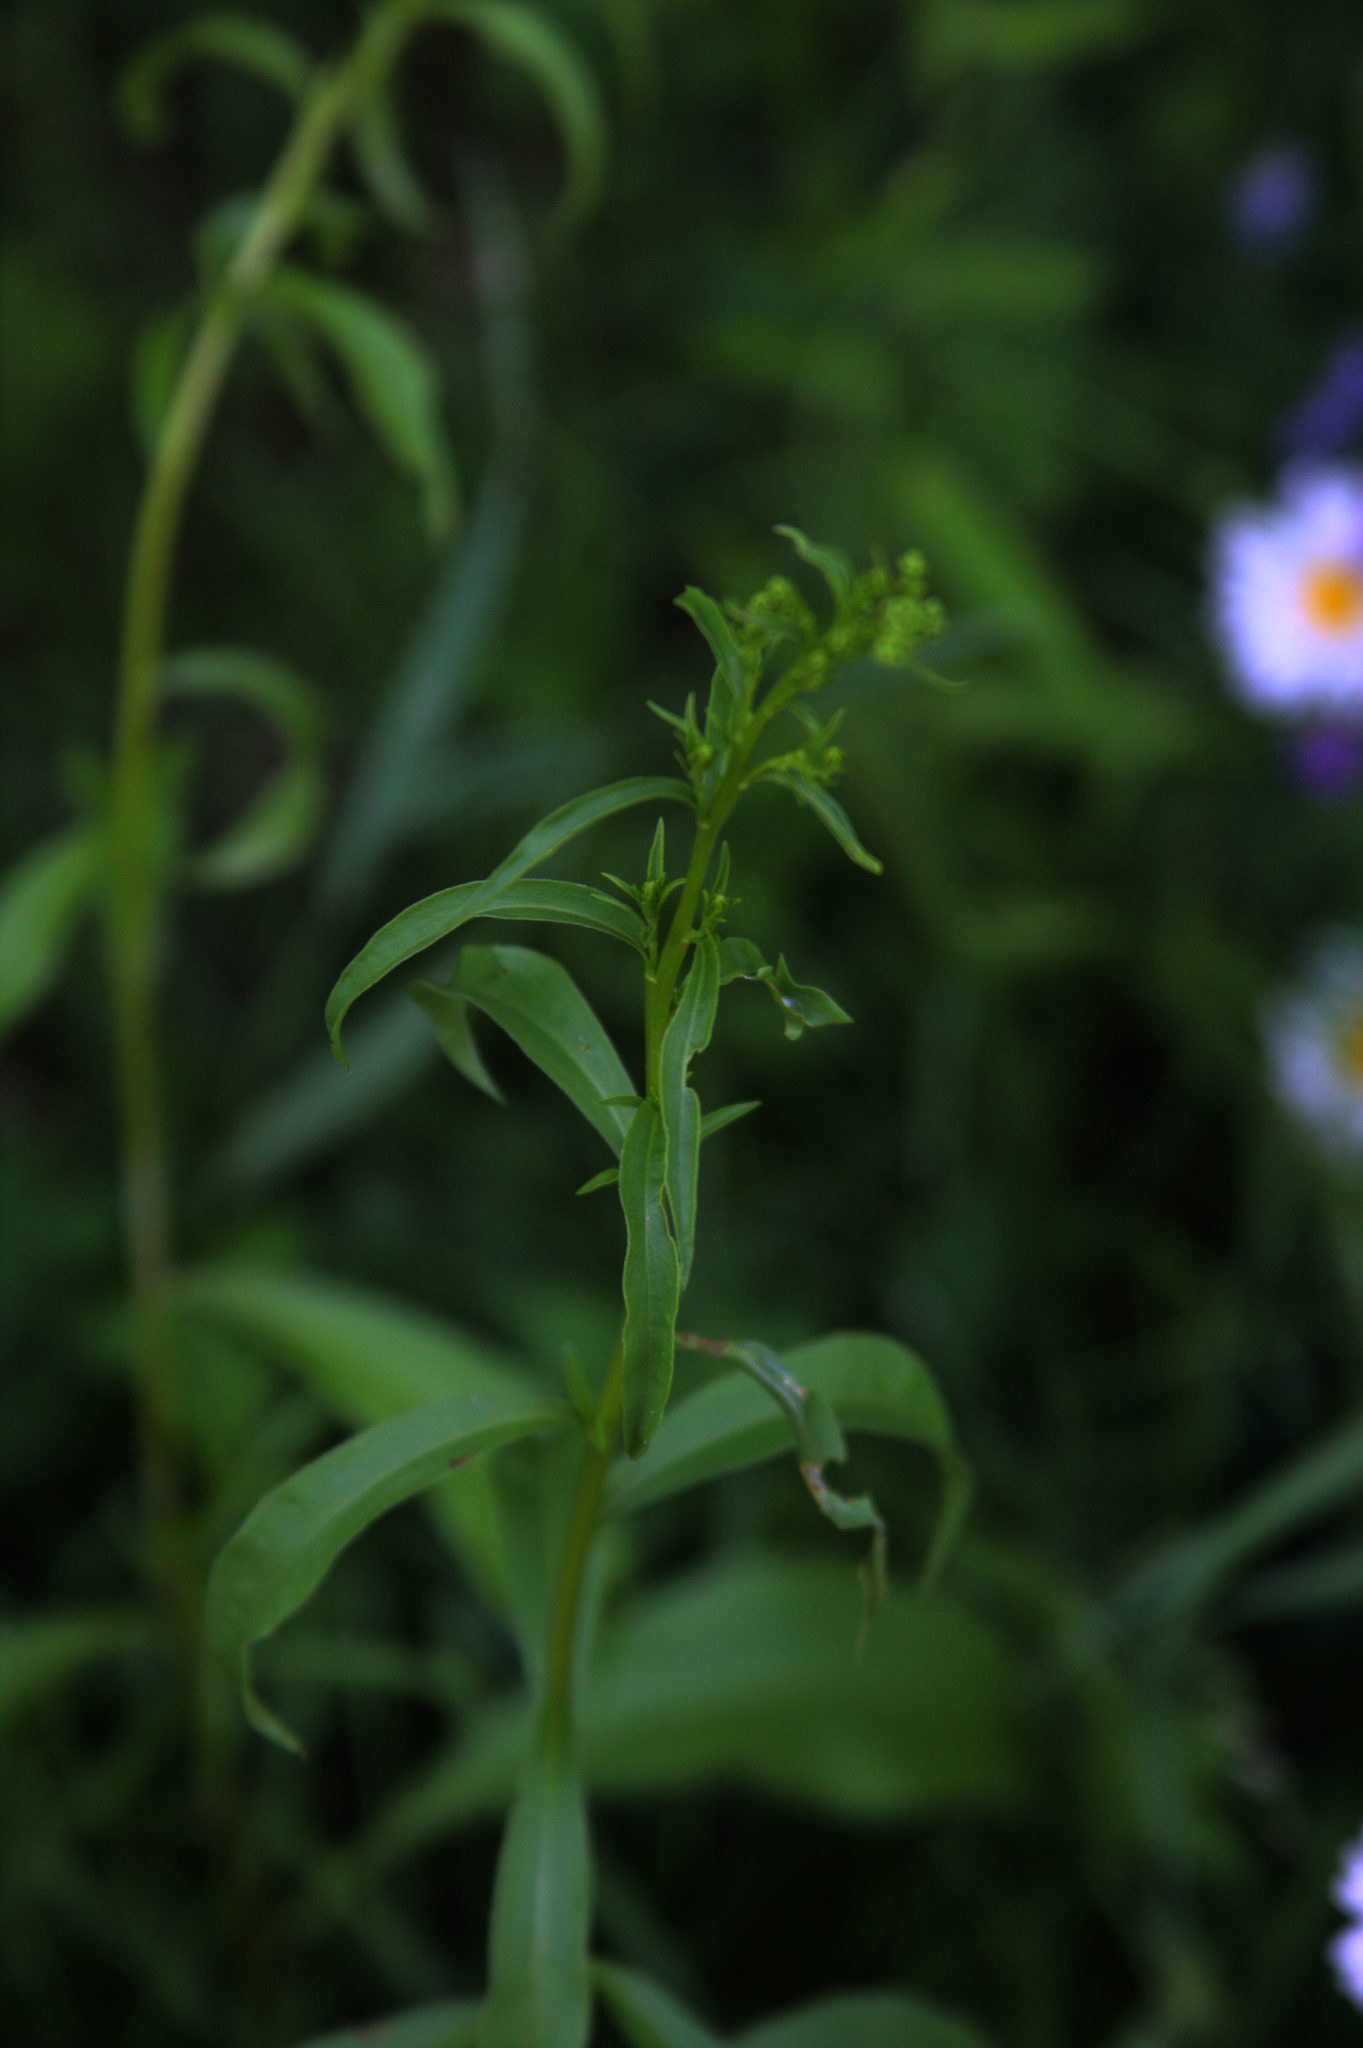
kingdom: Plantae
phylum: Tracheophyta
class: Magnoliopsida
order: Asterales
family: Asteraceae
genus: Solidago
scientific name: Solidago juncea
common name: Early goldenrod
